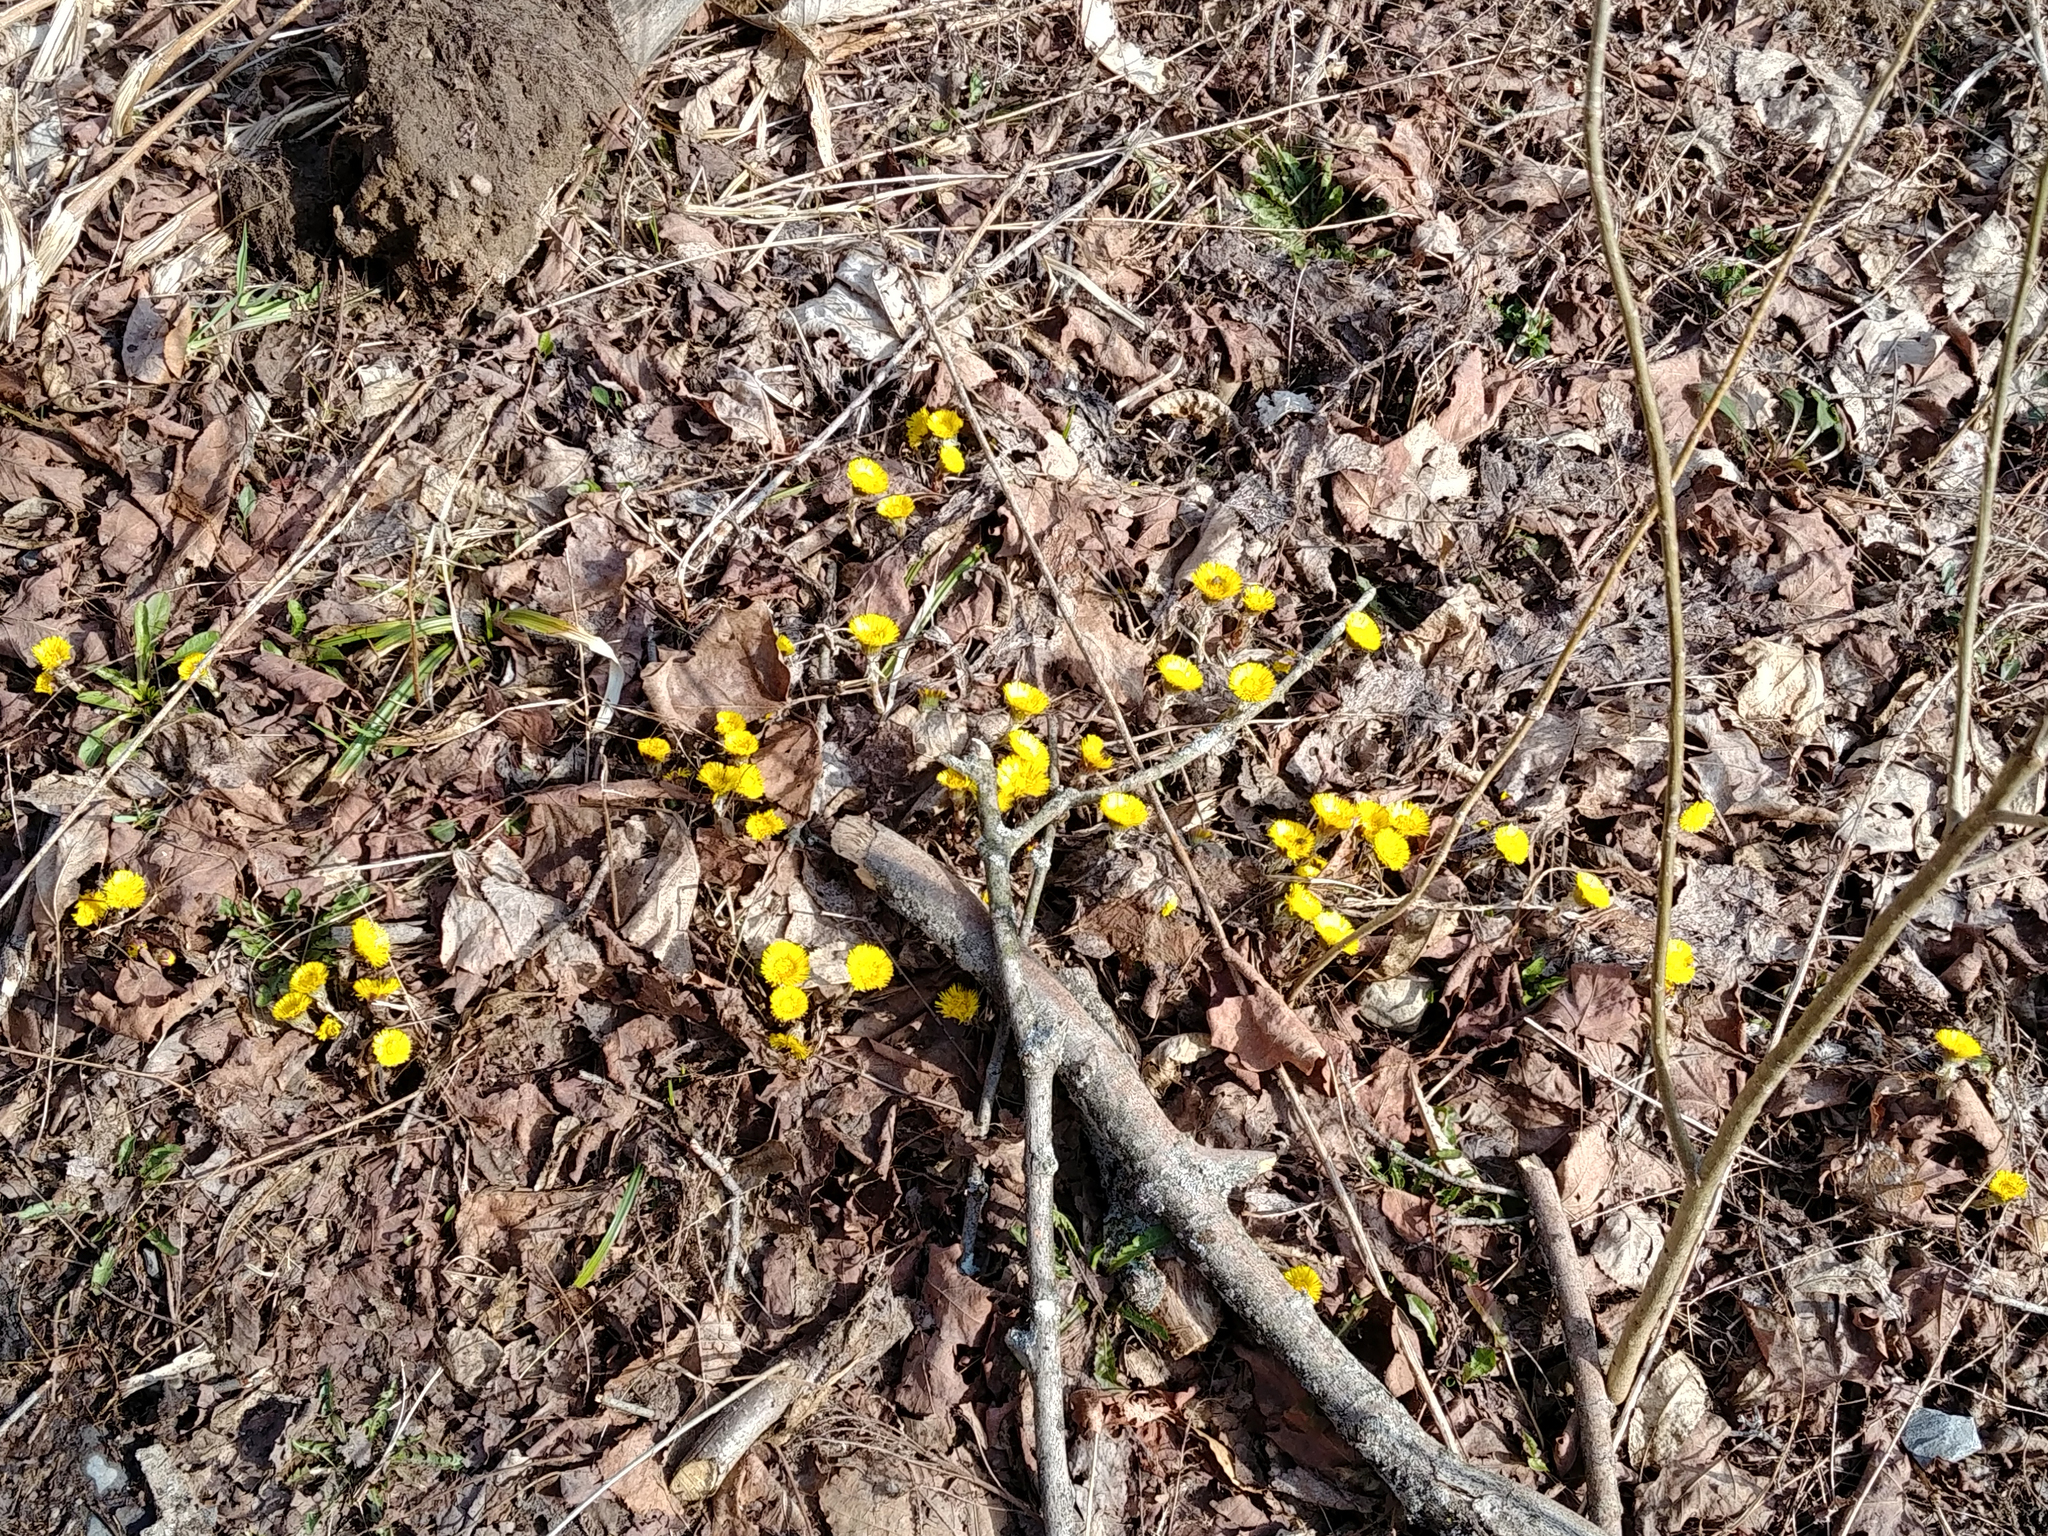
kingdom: Plantae
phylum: Tracheophyta
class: Magnoliopsida
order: Asterales
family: Asteraceae
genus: Tussilago
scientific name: Tussilago farfara
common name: Coltsfoot
